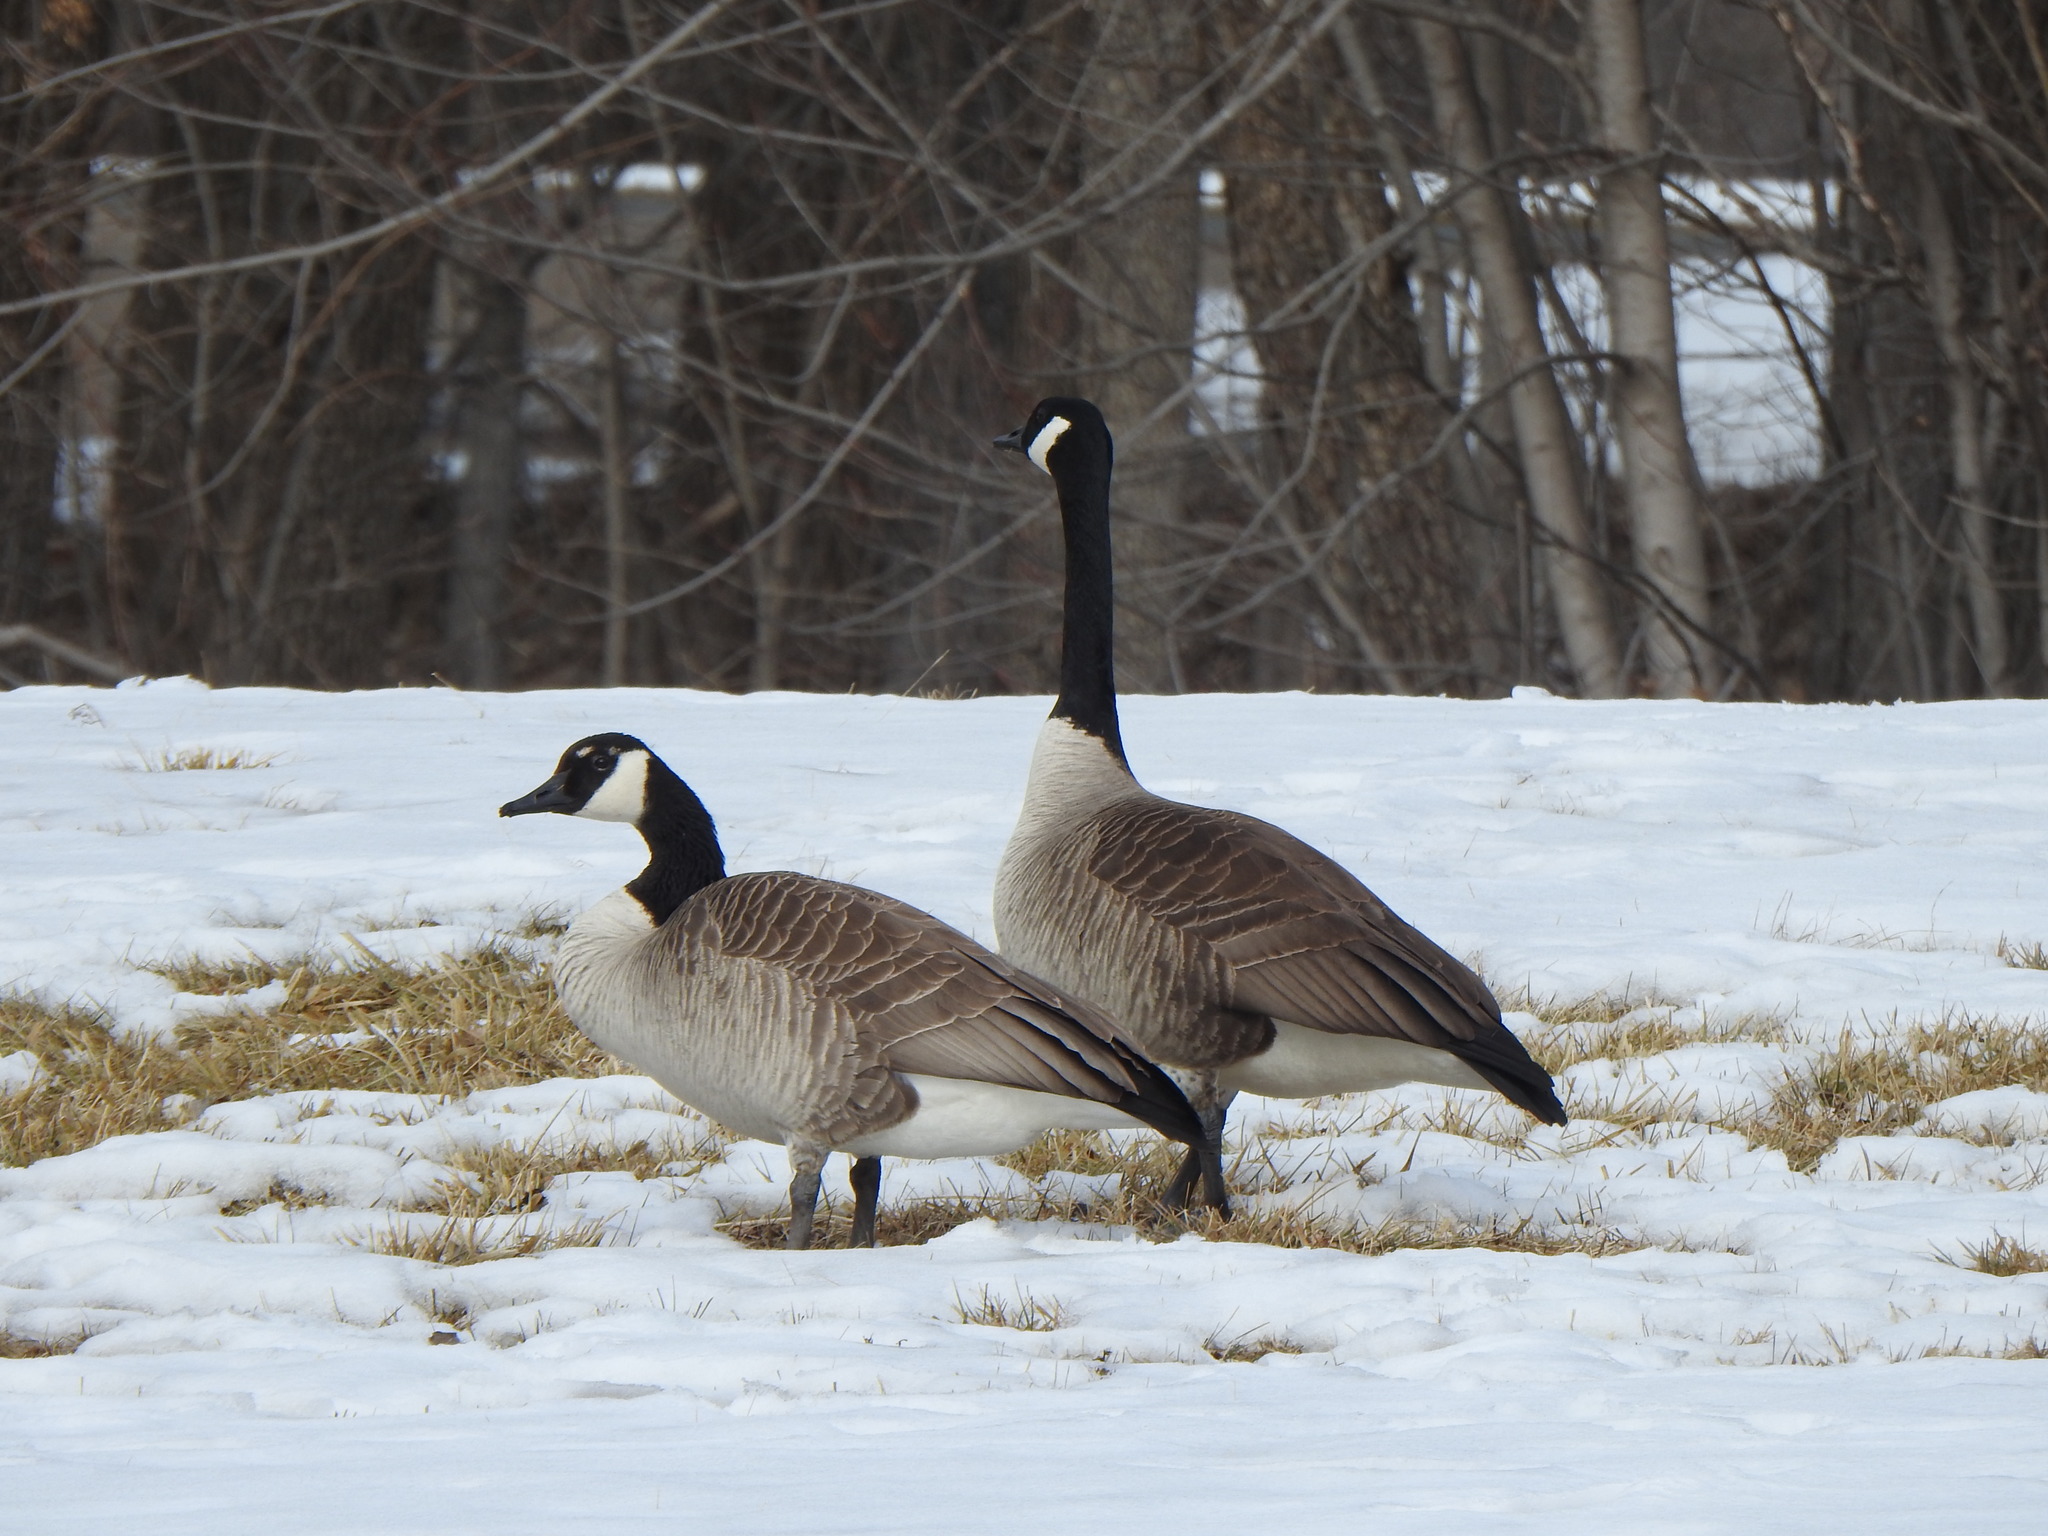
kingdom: Animalia
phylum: Chordata
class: Aves
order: Anseriformes
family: Anatidae
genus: Branta
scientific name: Branta canadensis
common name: Canada goose
